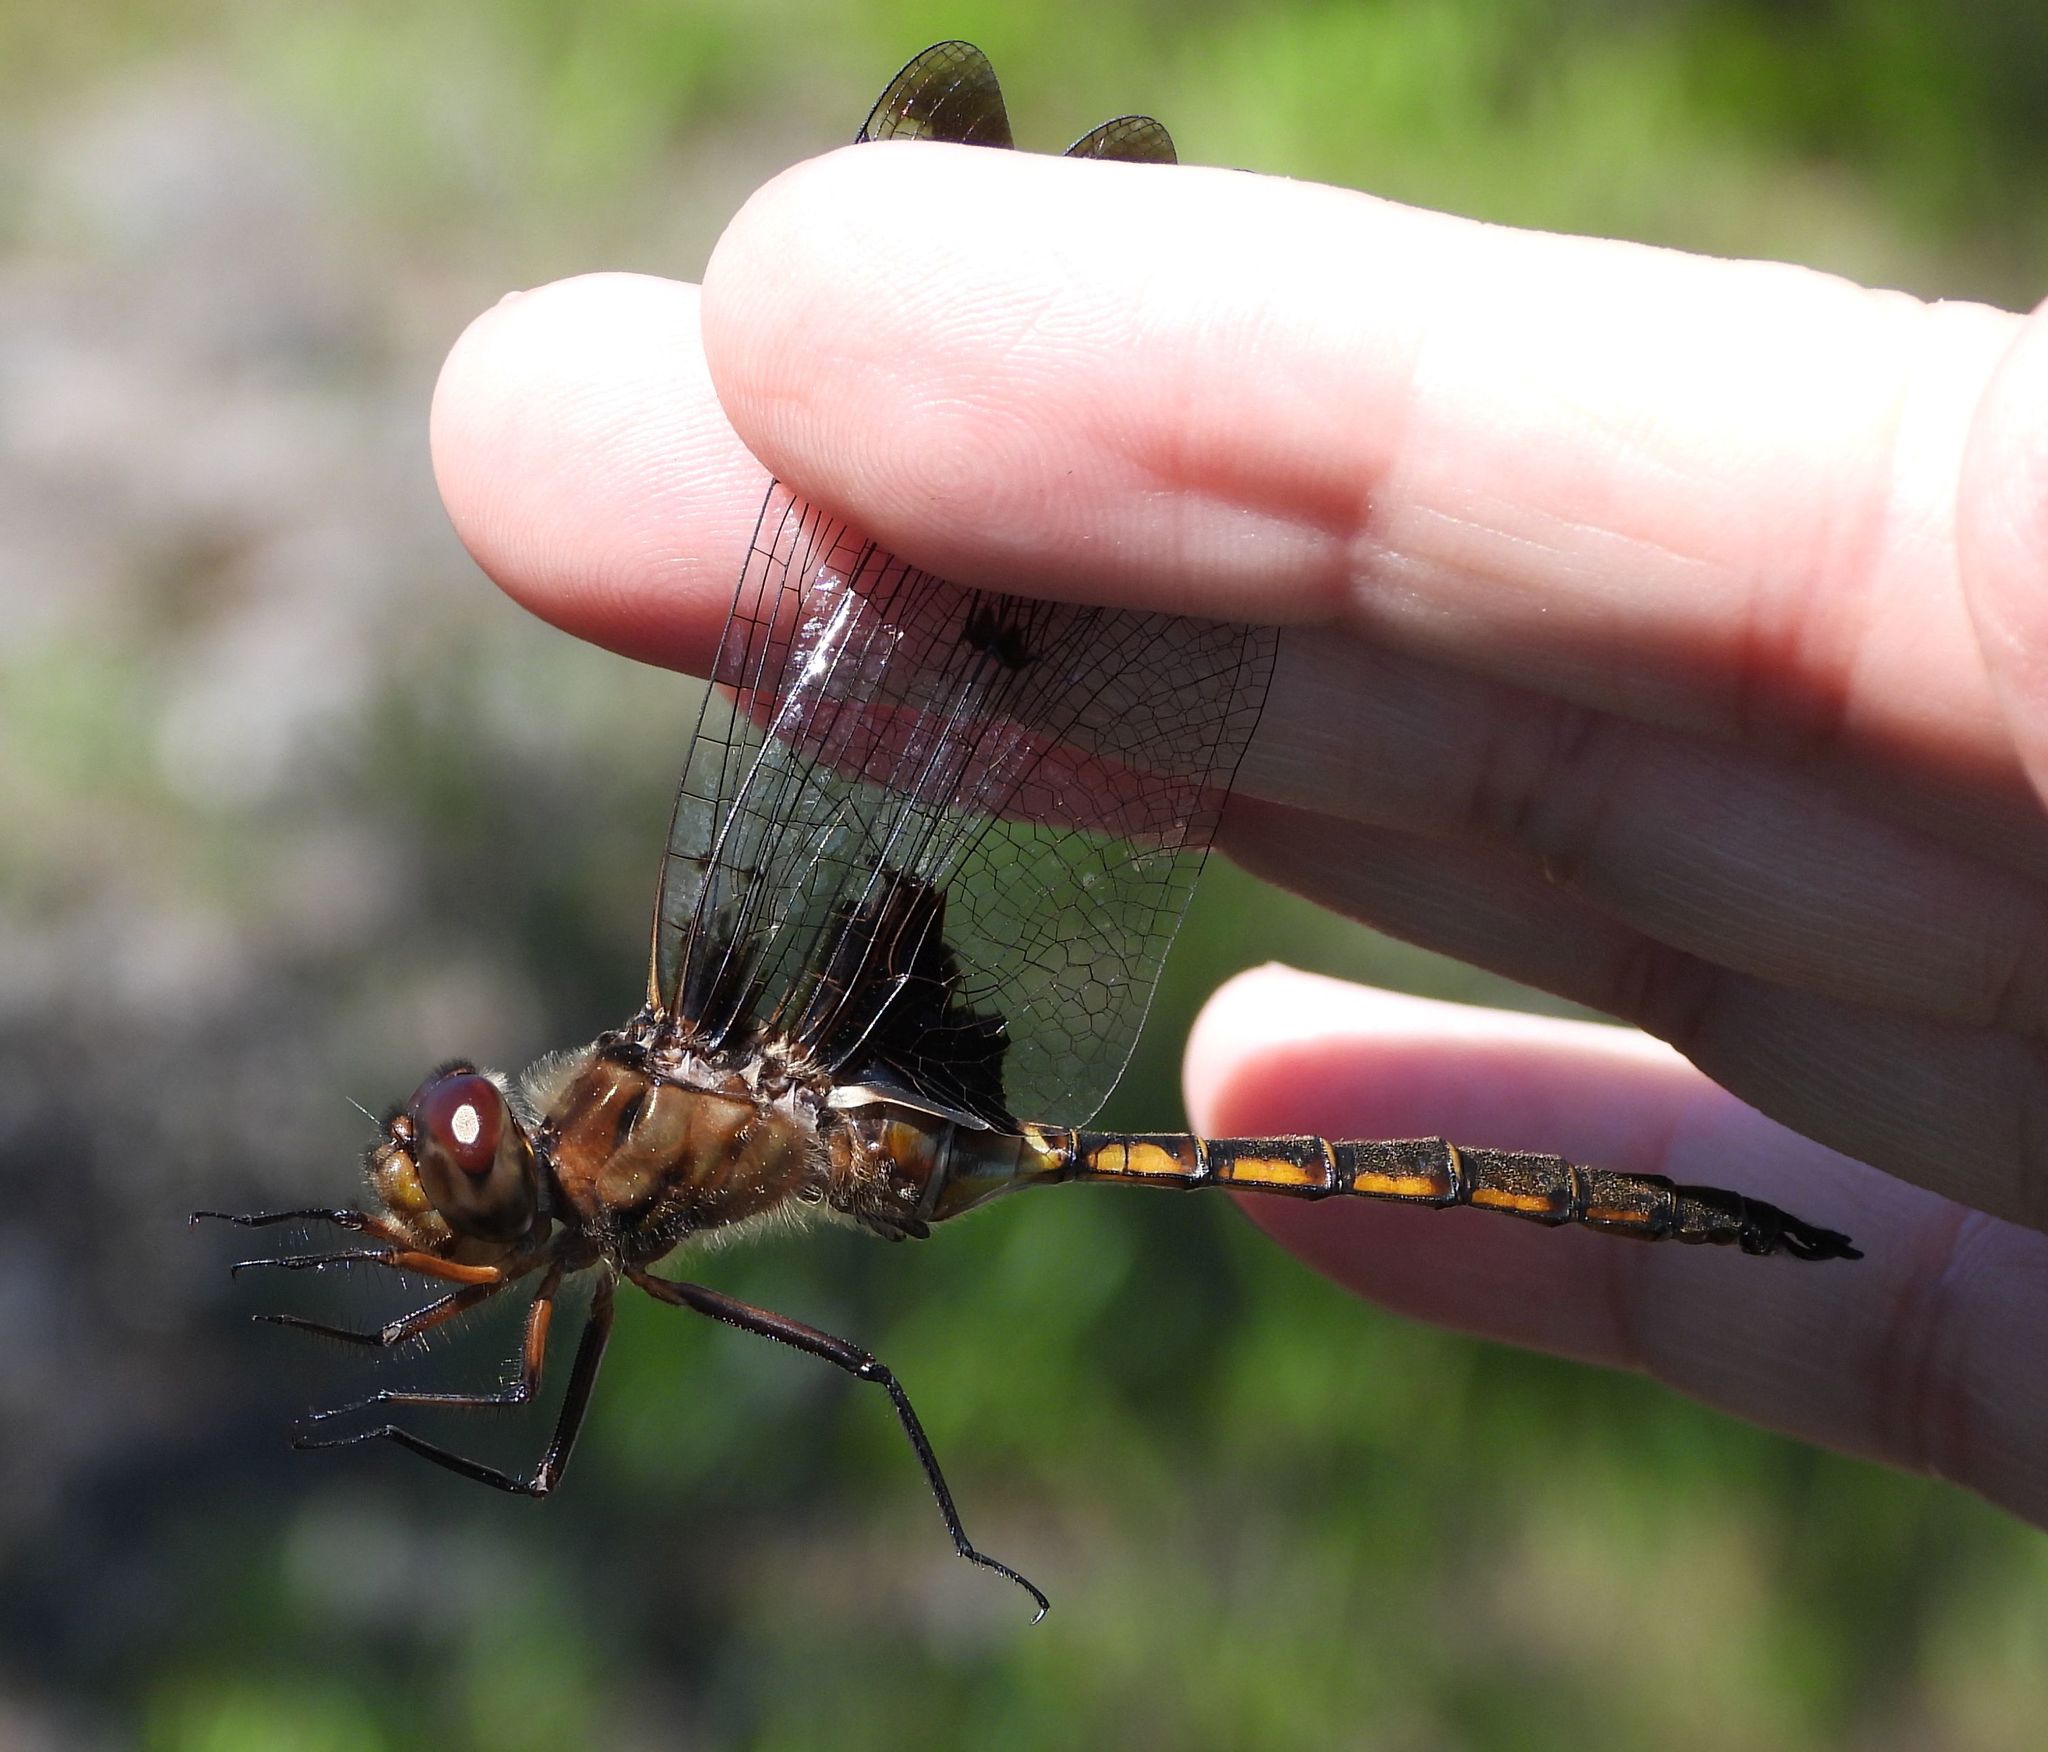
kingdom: Animalia
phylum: Arthropoda
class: Insecta
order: Odonata
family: Corduliidae
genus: Epitheca
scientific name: Epitheca princeps
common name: Prince baskettail
